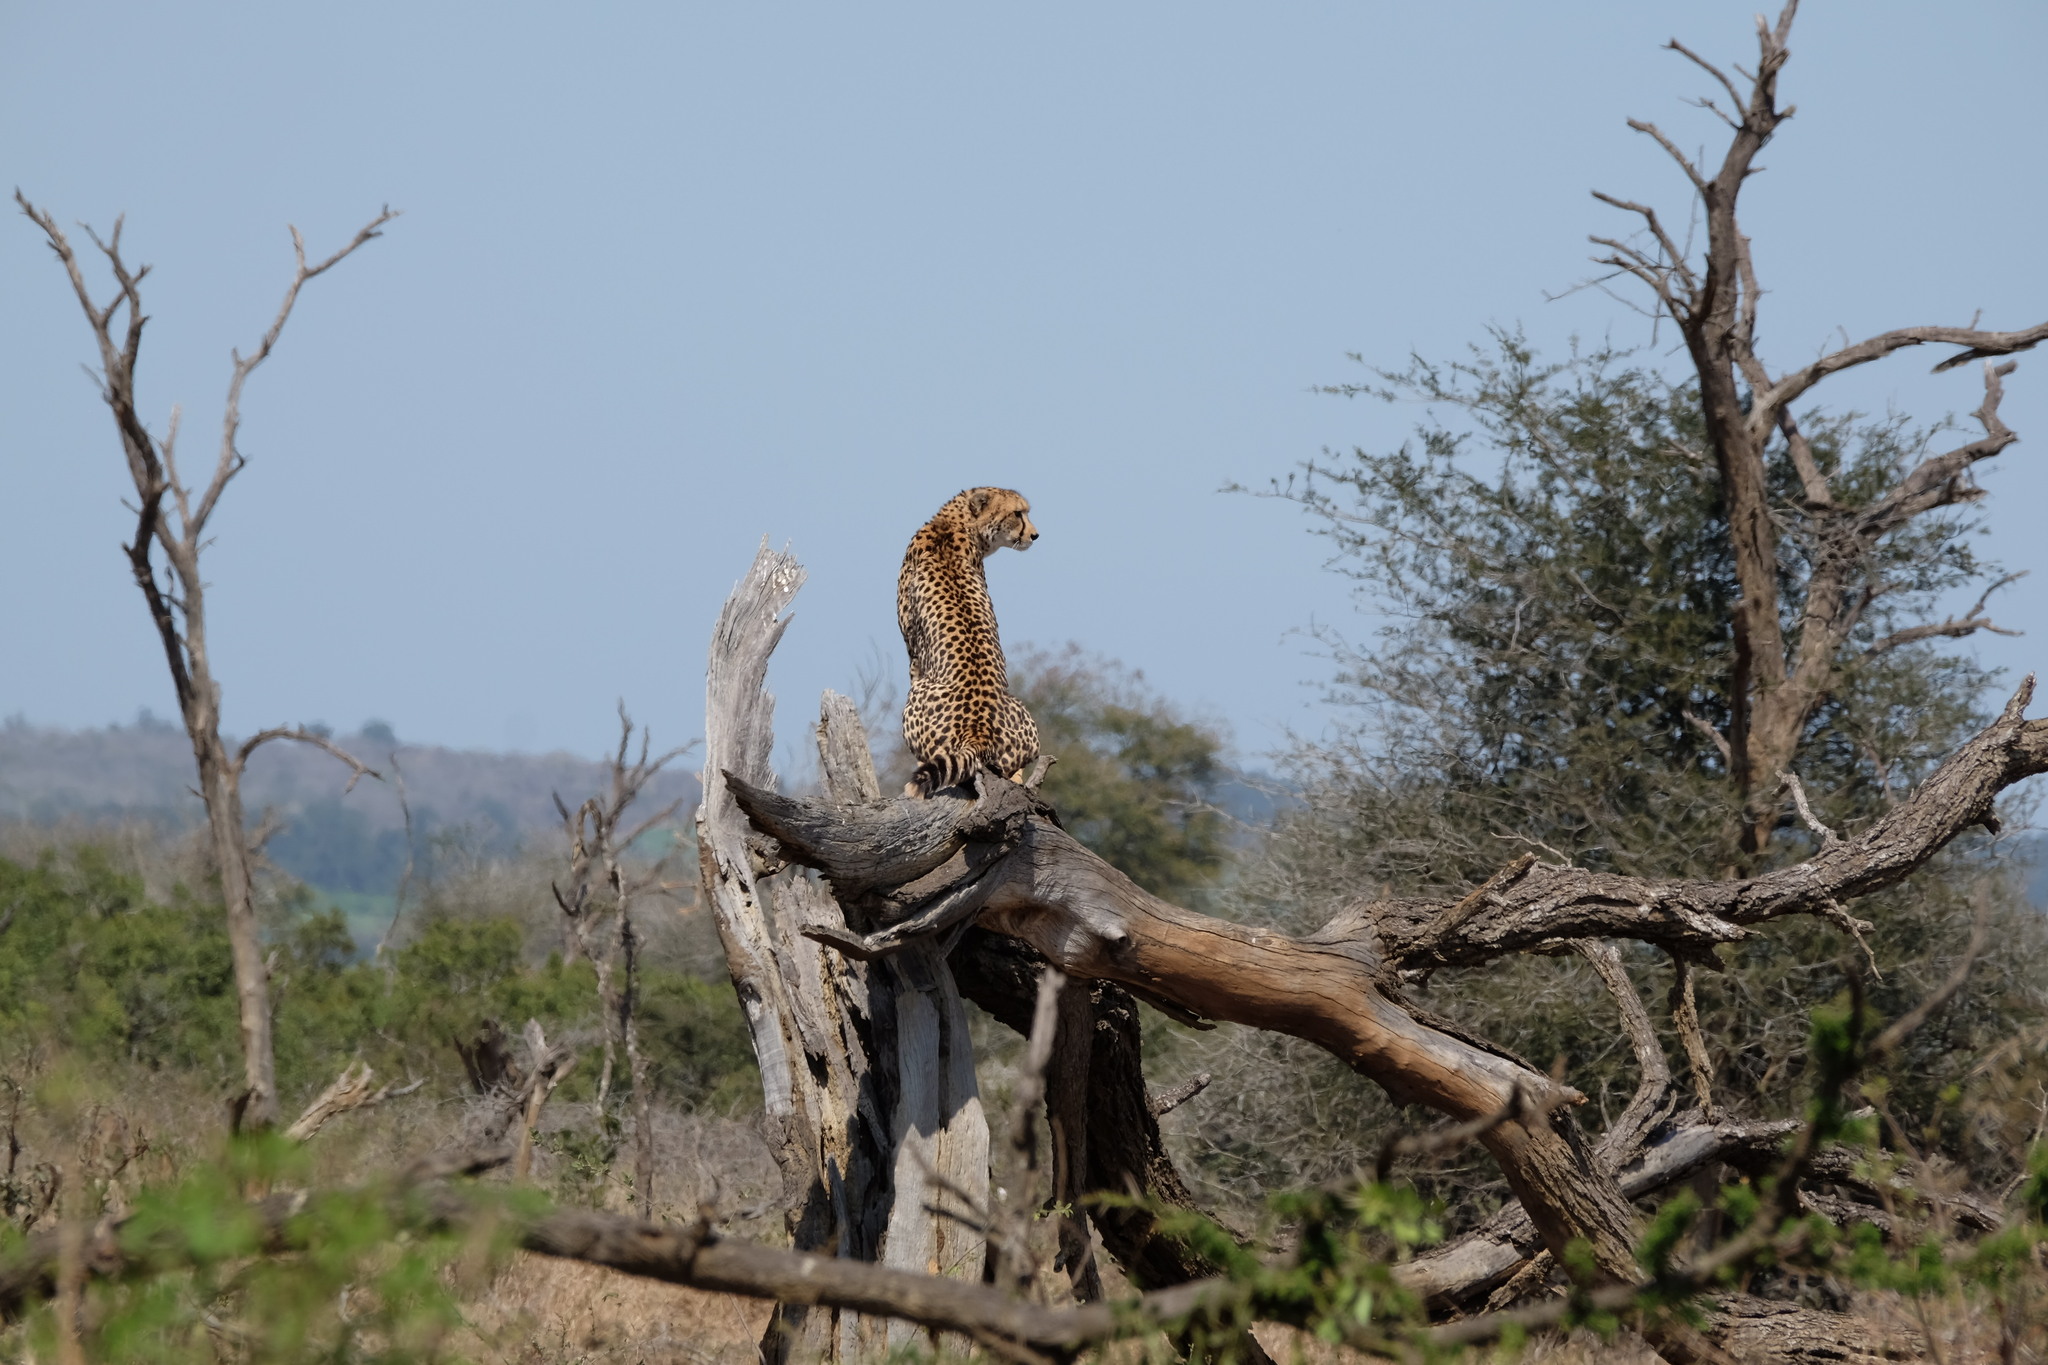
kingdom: Animalia
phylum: Chordata
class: Mammalia
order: Carnivora
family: Felidae
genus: Acinonyx
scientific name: Acinonyx jubatus
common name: Cheetah
